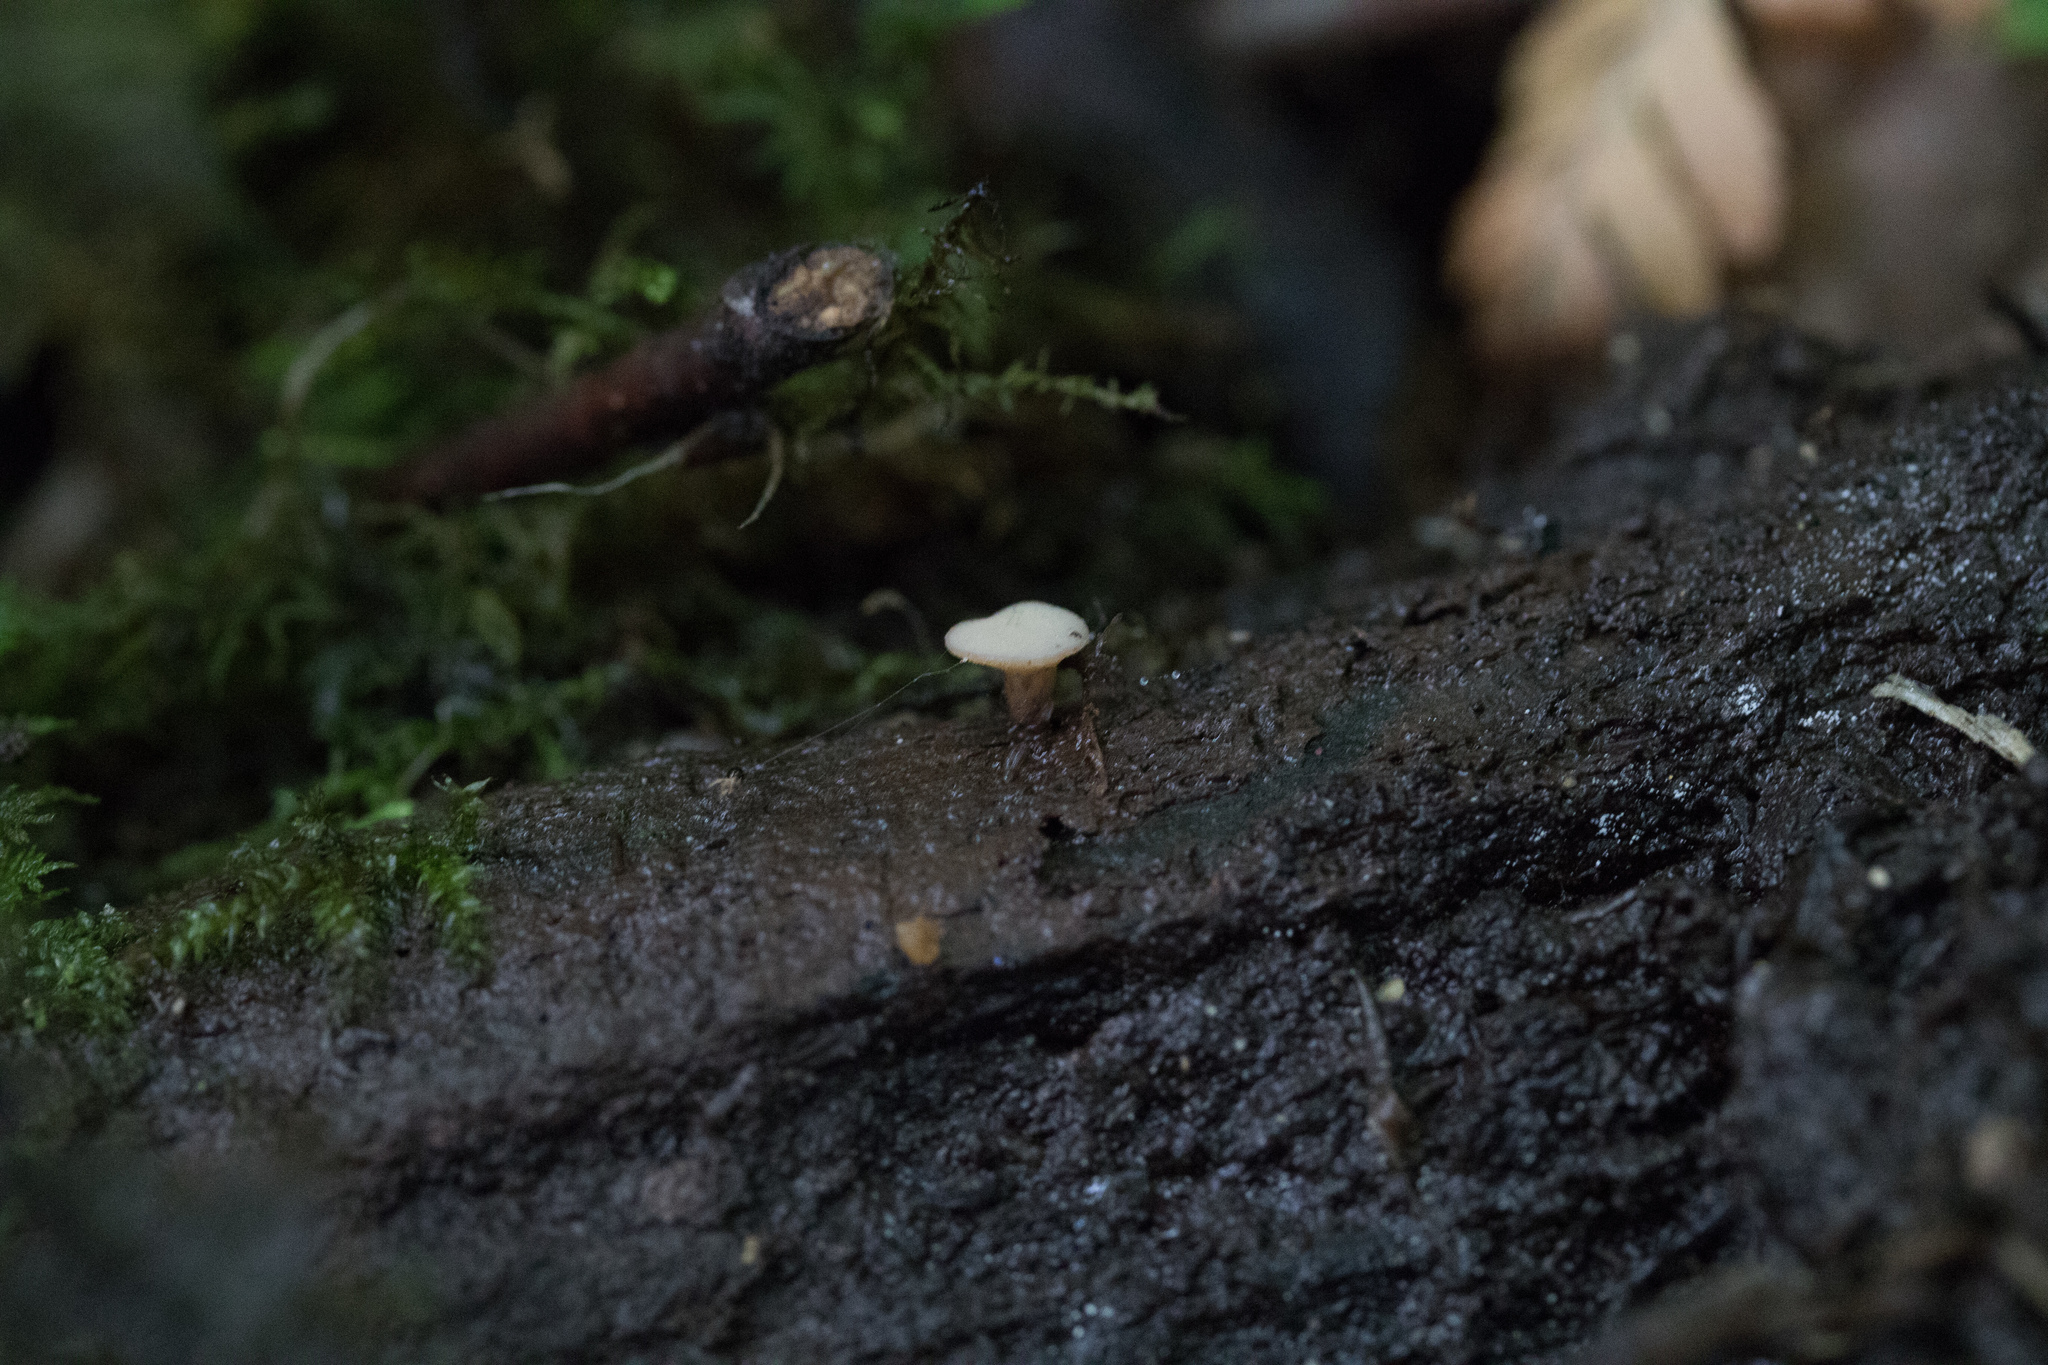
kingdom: Fungi
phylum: Ascomycota
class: Leotiomycetes
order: Helotiales
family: Helotiaceae
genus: Tatraea
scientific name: Tatraea macrospora
